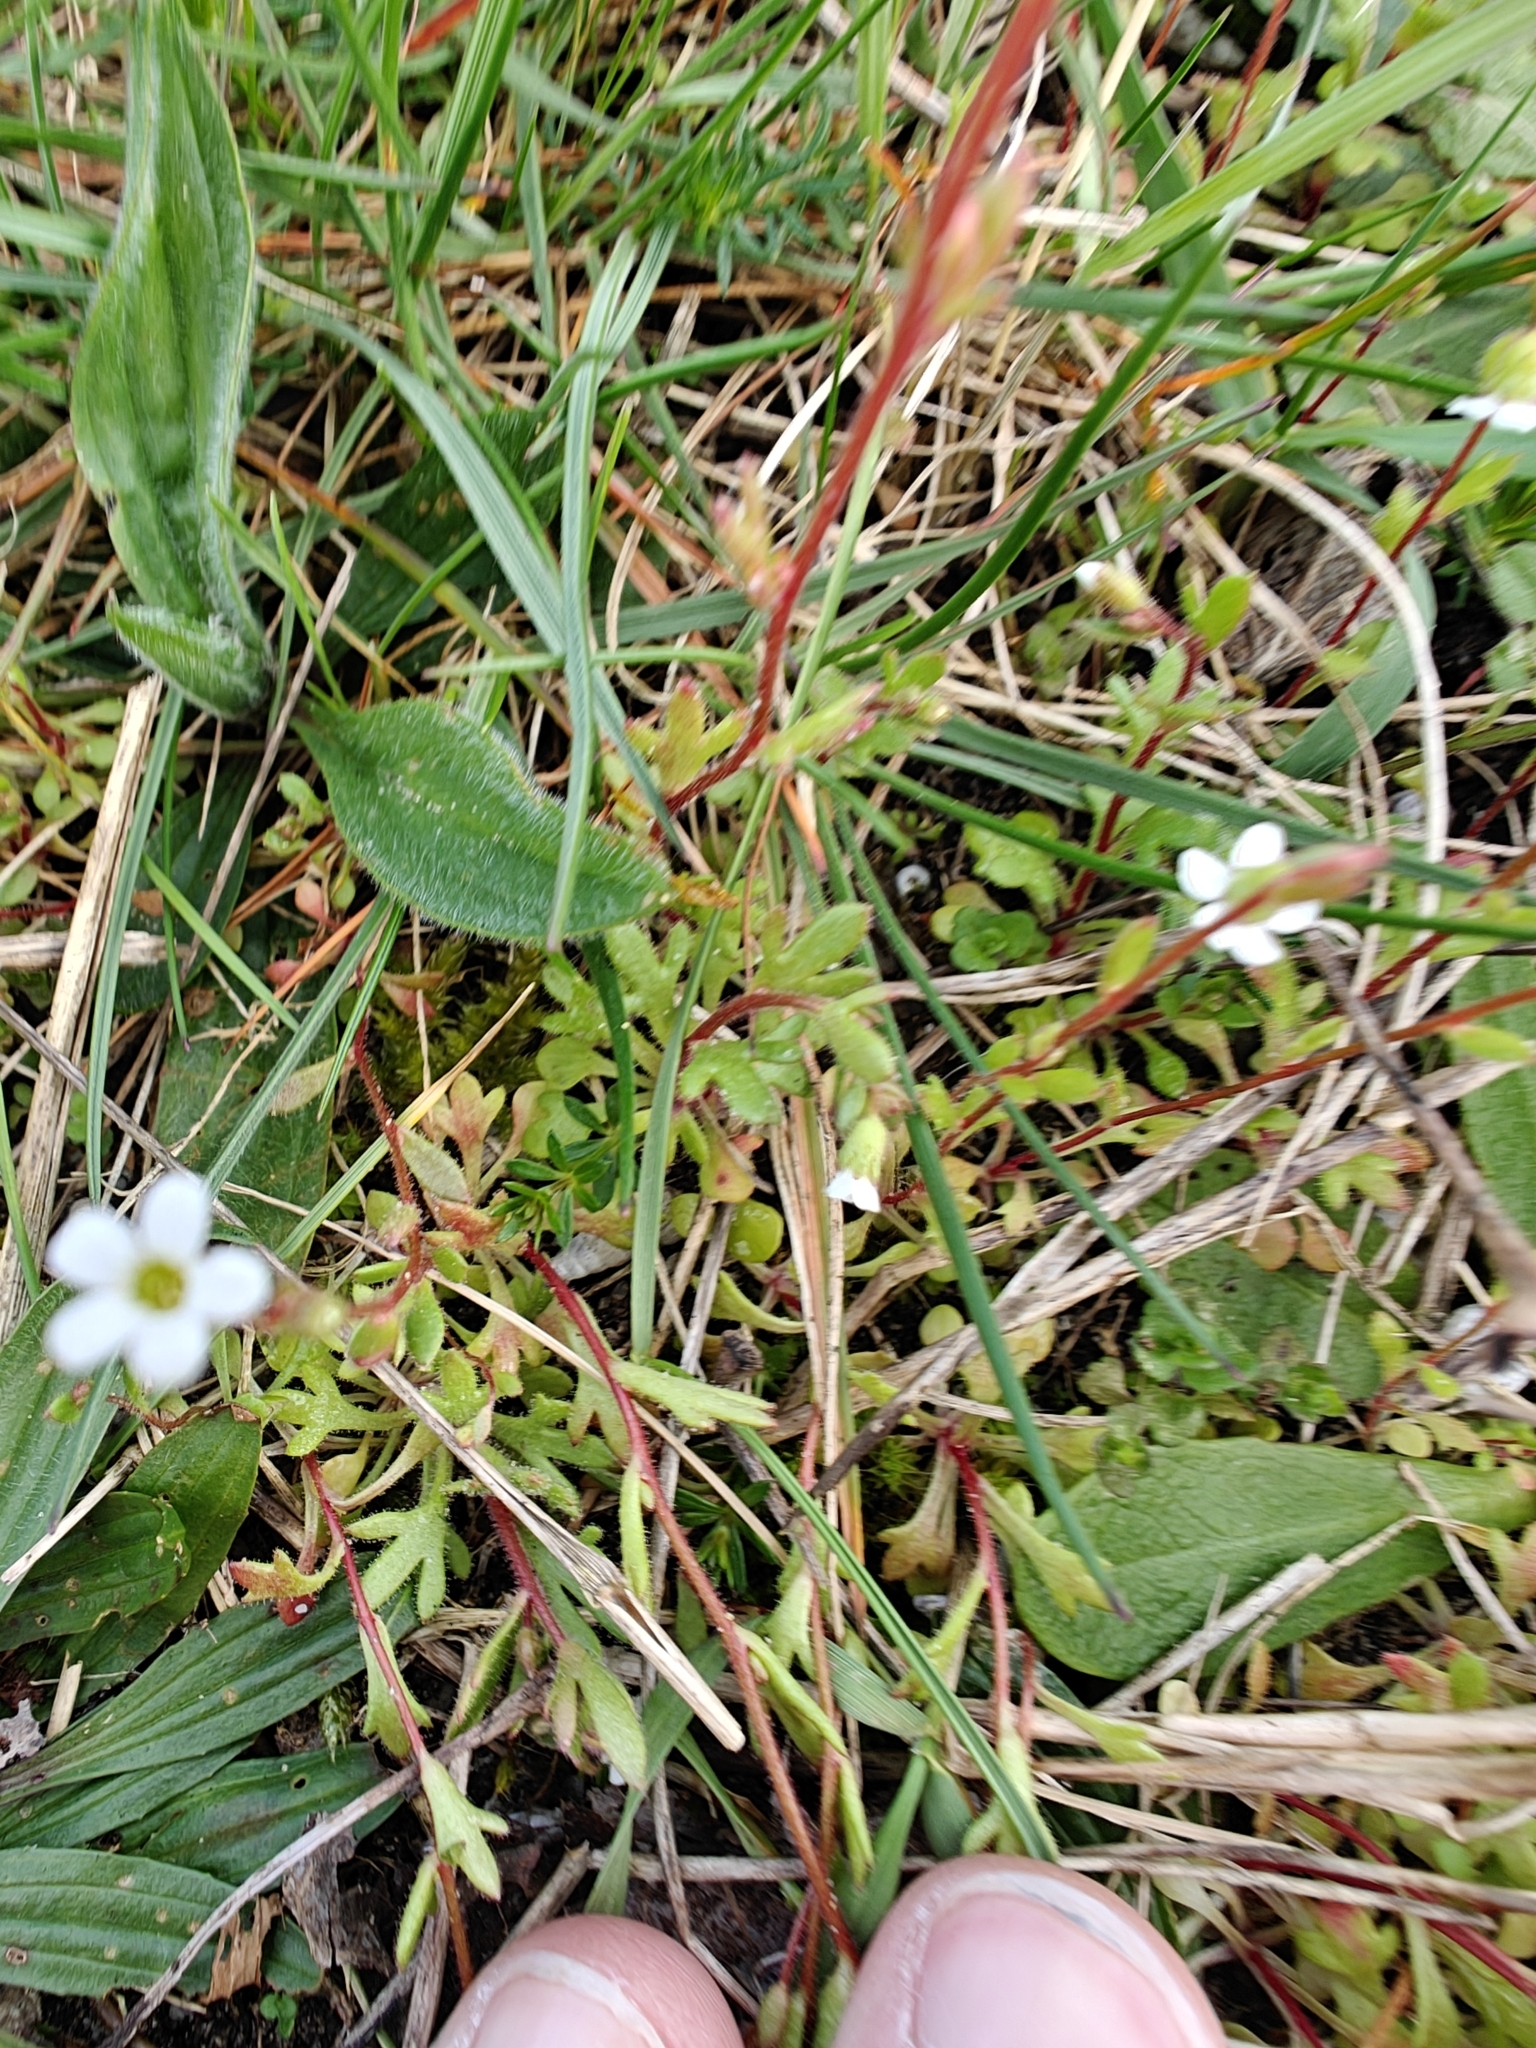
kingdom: Plantae
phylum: Tracheophyta
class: Magnoliopsida
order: Saxifragales
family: Saxifragaceae
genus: Saxifraga
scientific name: Saxifraga tridactylites
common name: Rue-leaved saxifrage
